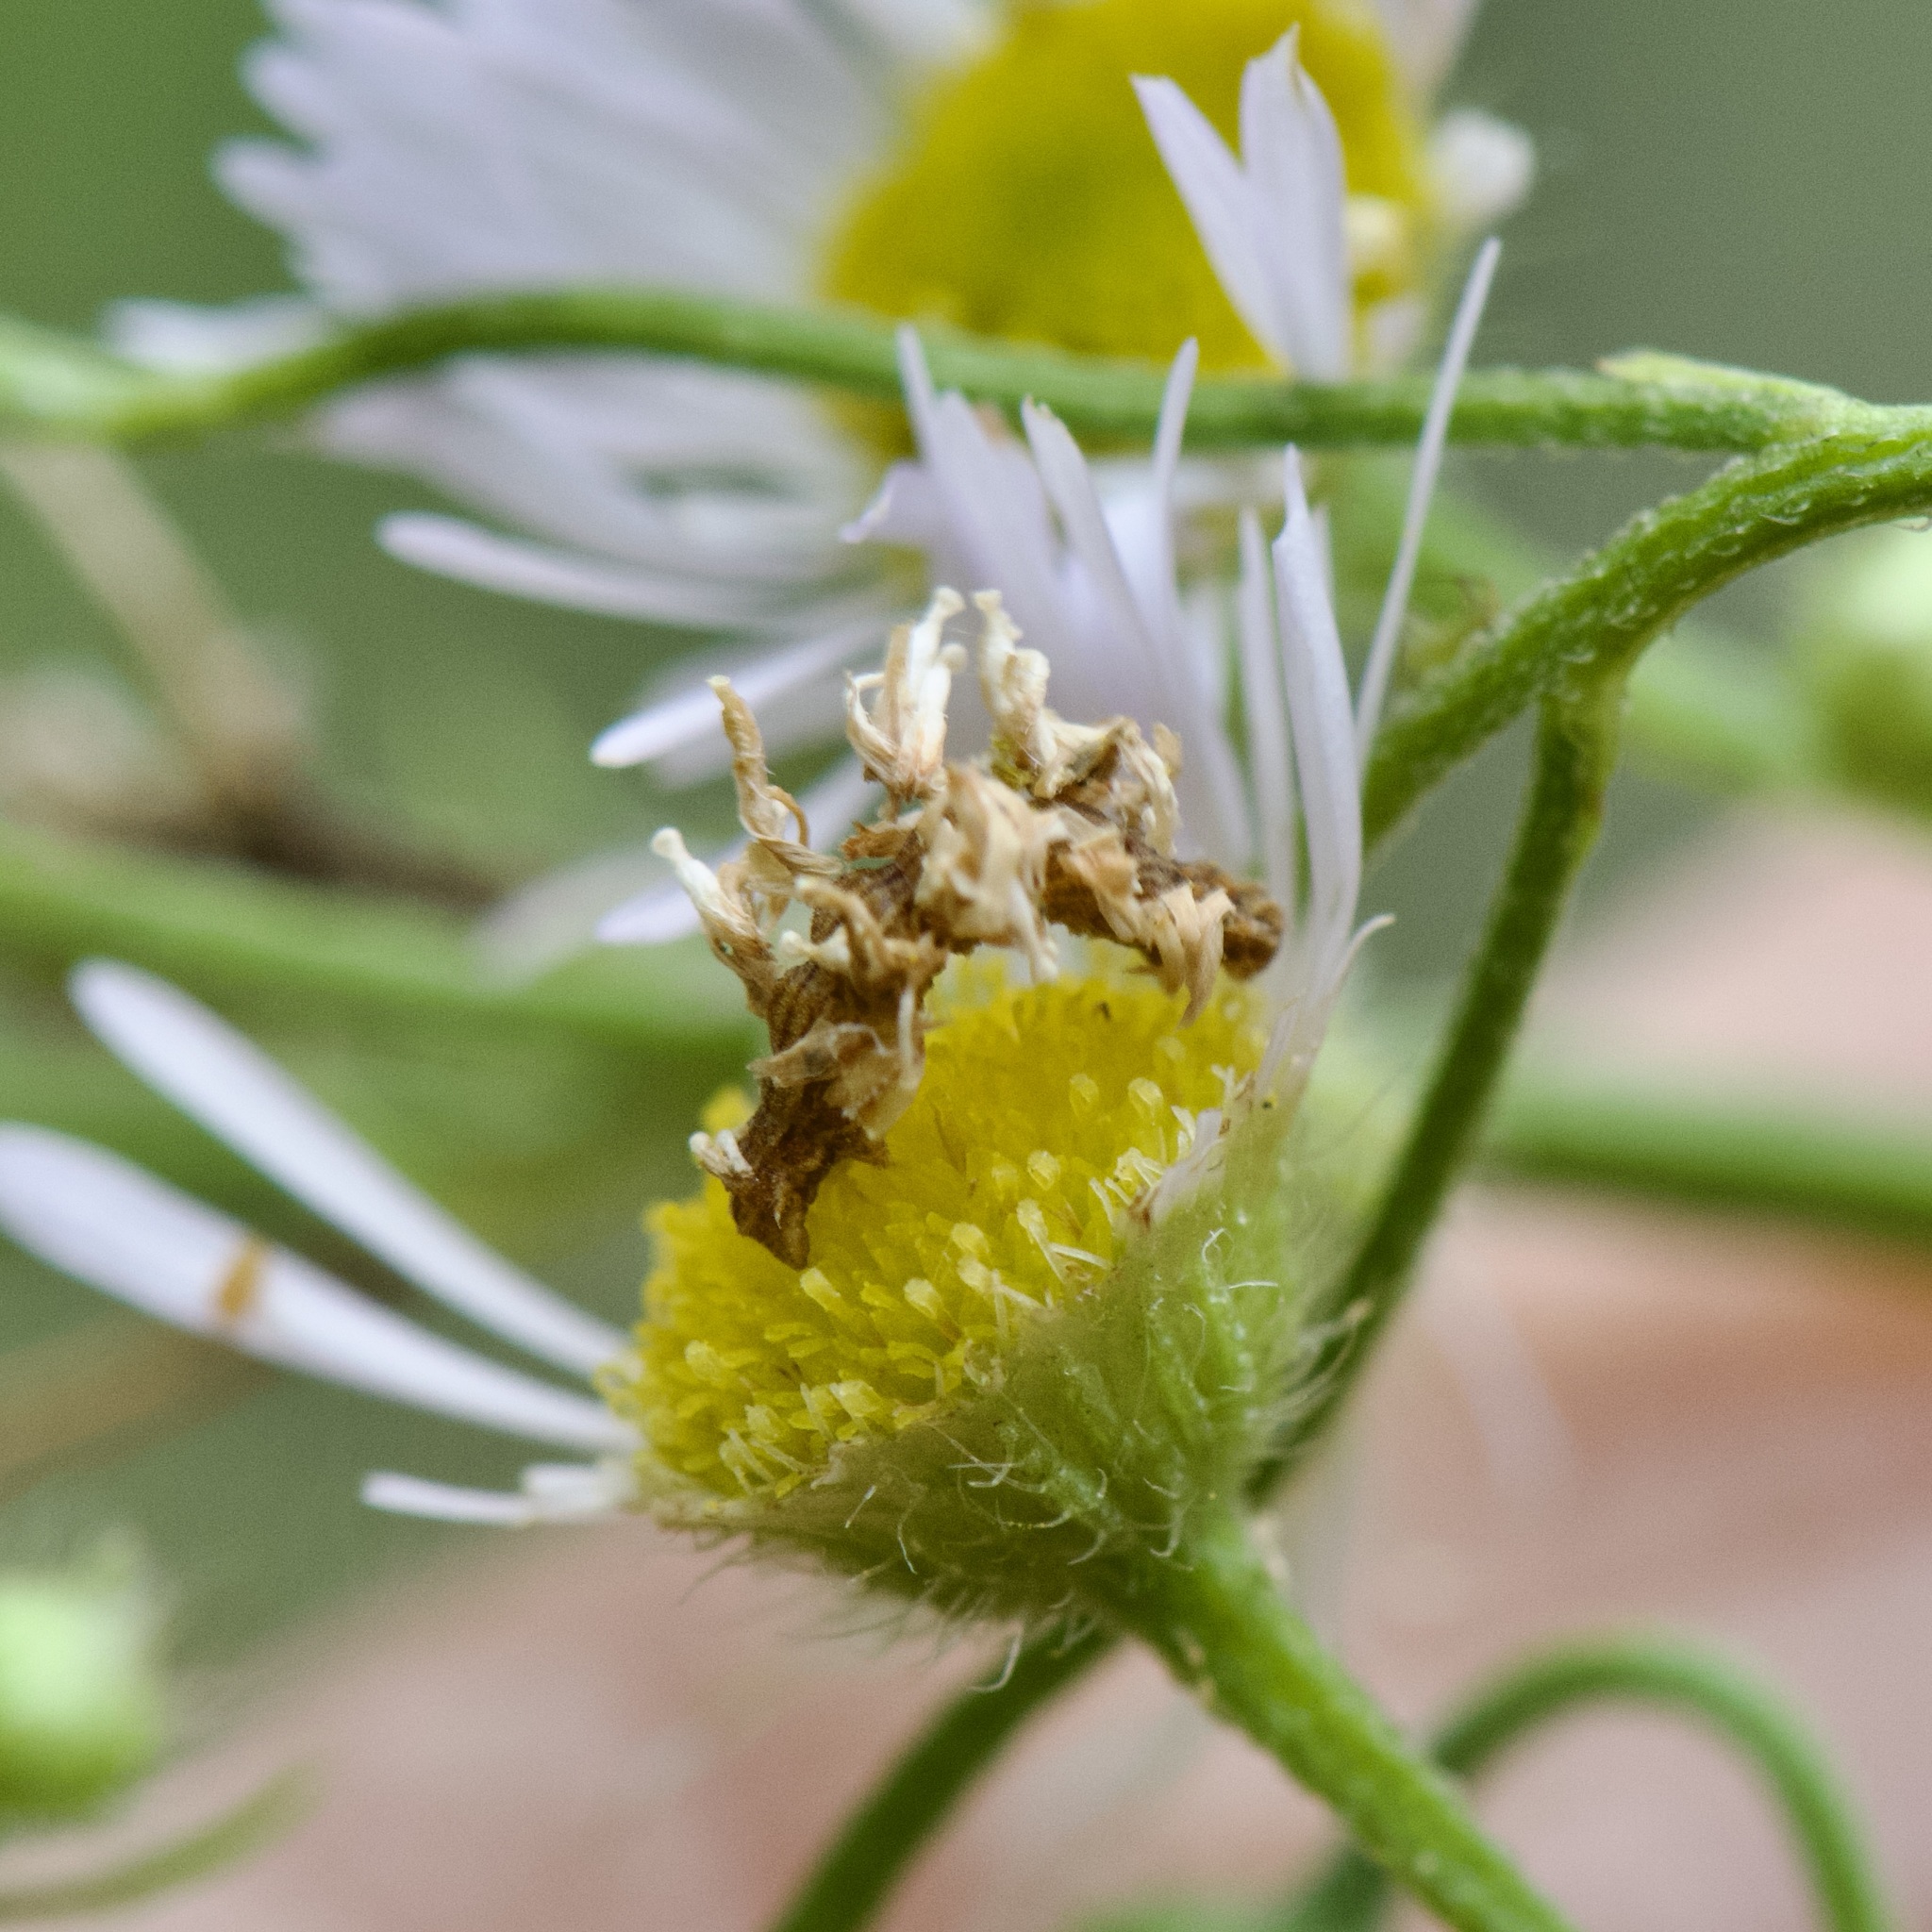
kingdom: Animalia
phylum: Arthropoda
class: Insecta
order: Lepidoptera
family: Geometridae
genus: Synchlora
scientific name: Synchlora aerata
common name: Wavy-lined emerald
